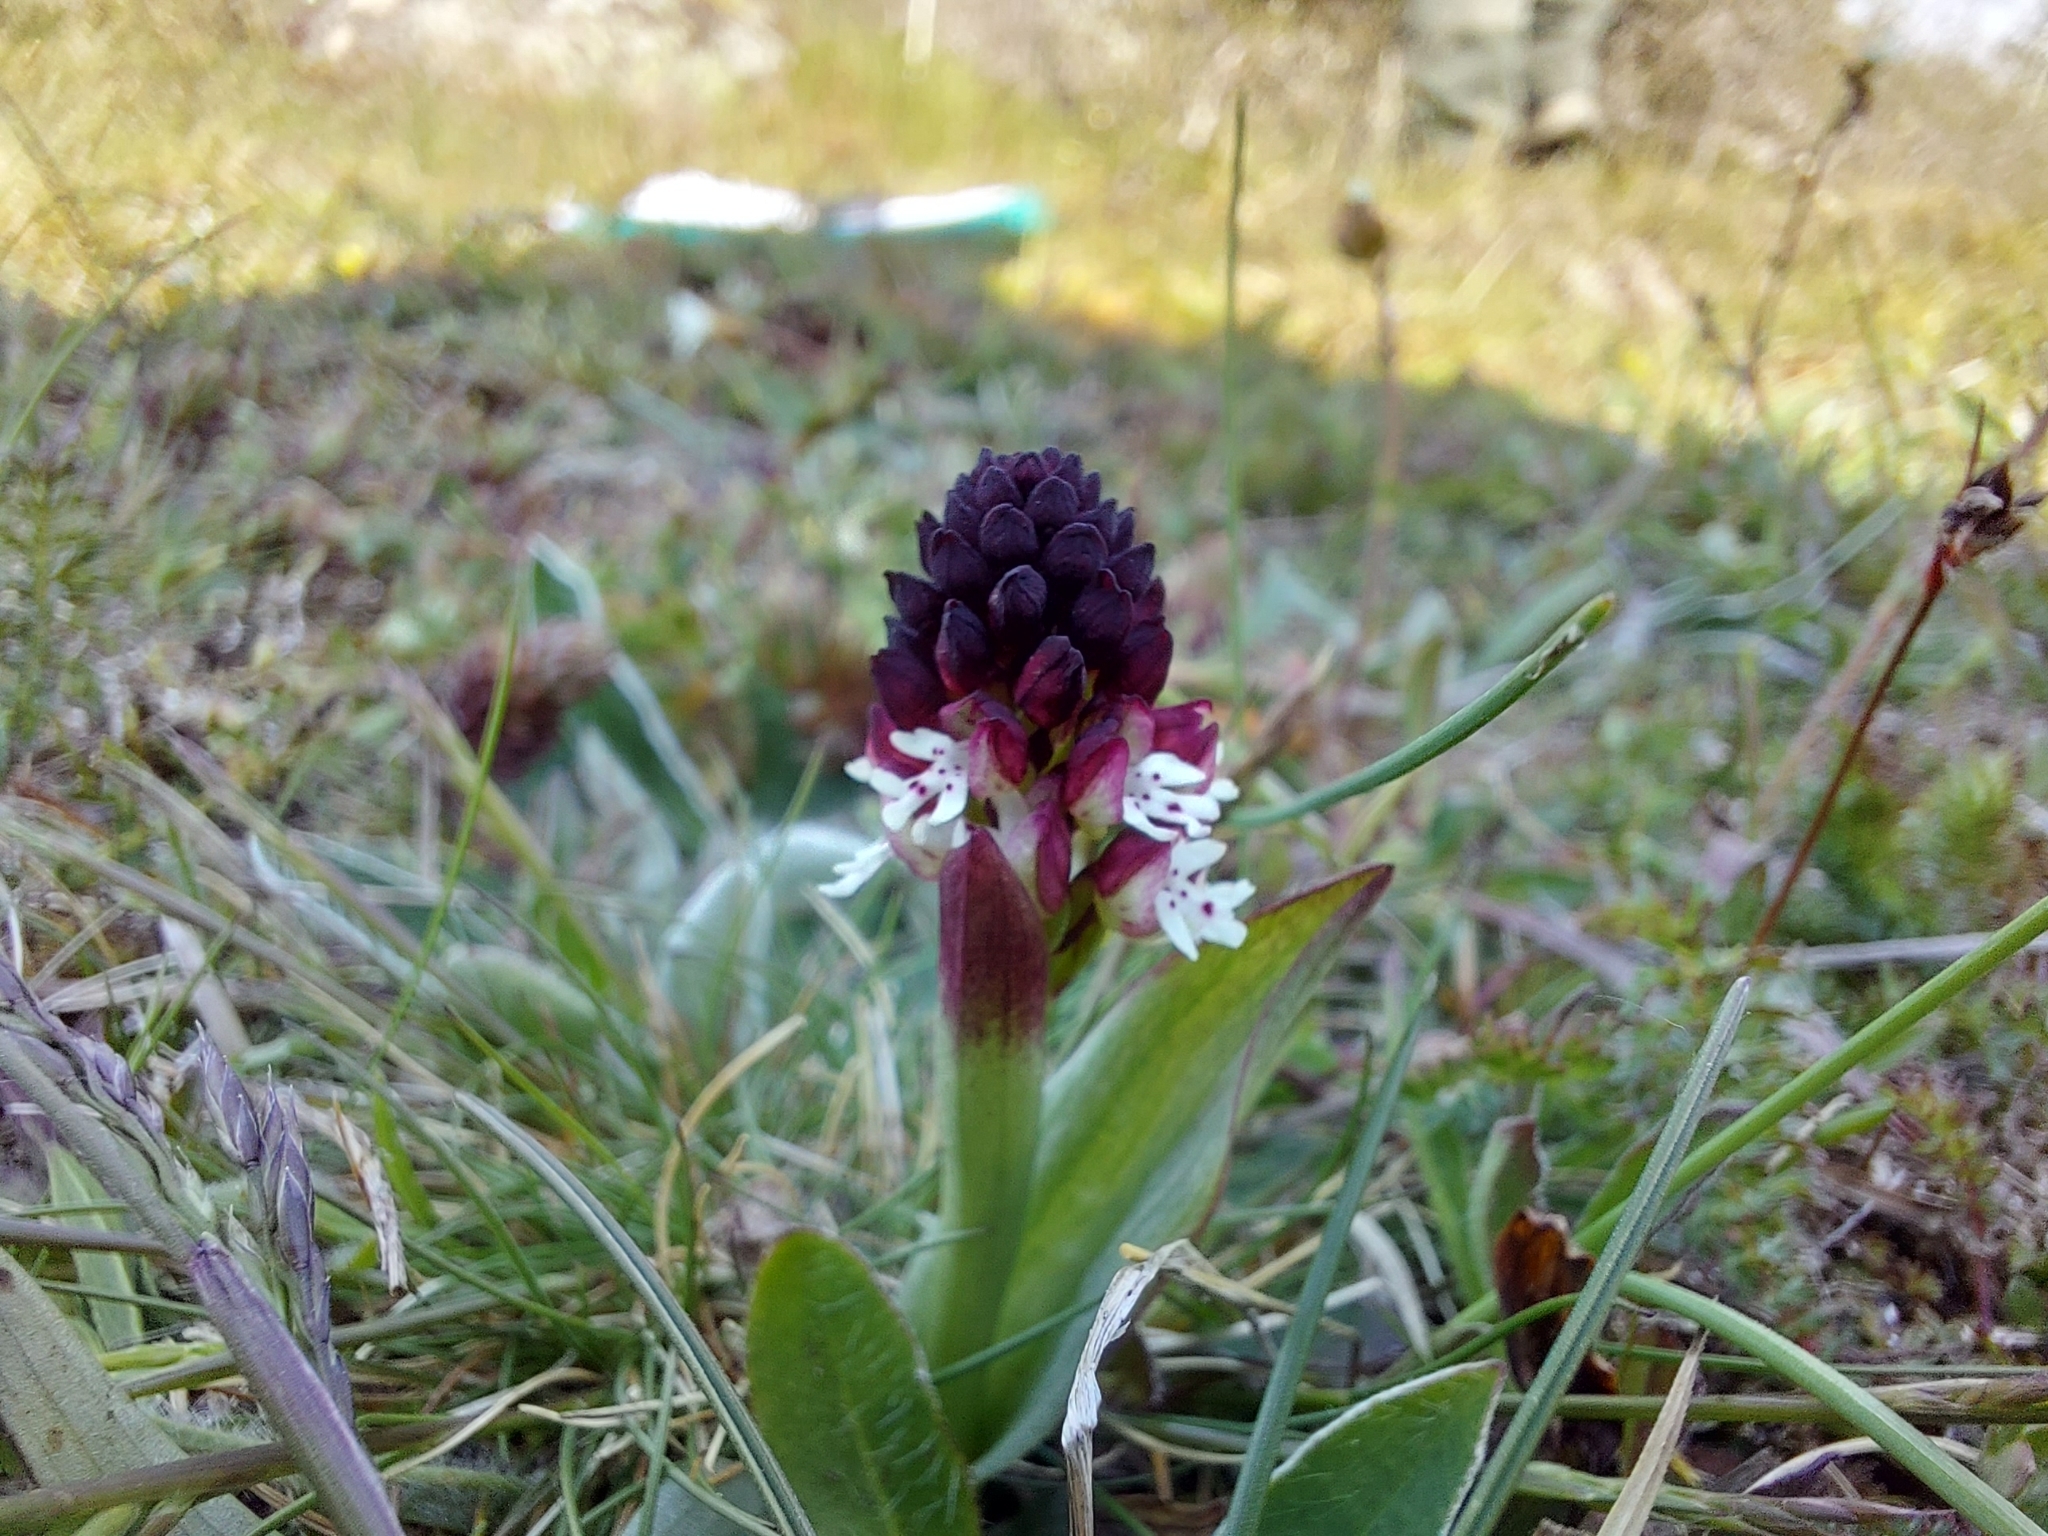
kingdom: Plantae
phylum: Tracheophyta
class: Liliopsida
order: Asparagales
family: Orchidaceae
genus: Neotinea
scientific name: Neotinea ustulata
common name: Burnt orchid
